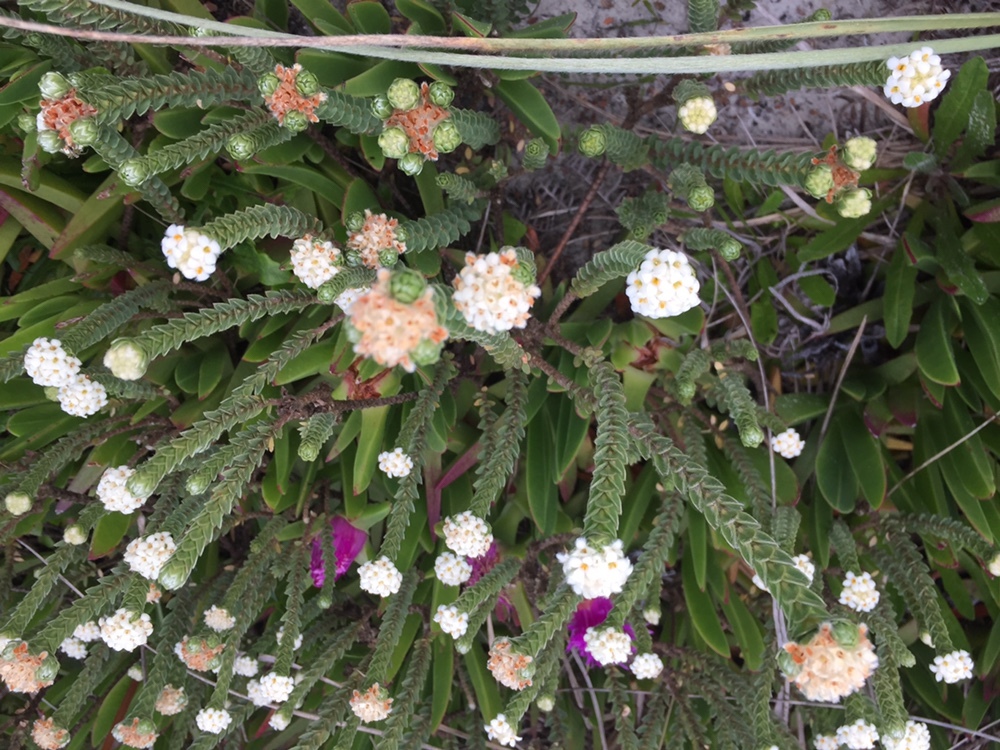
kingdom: Plantae
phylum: Tracheophyta
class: Magnoliopsida
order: Malvales
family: Thymelaeaceae
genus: Pimelea
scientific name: Pimelea villosa
